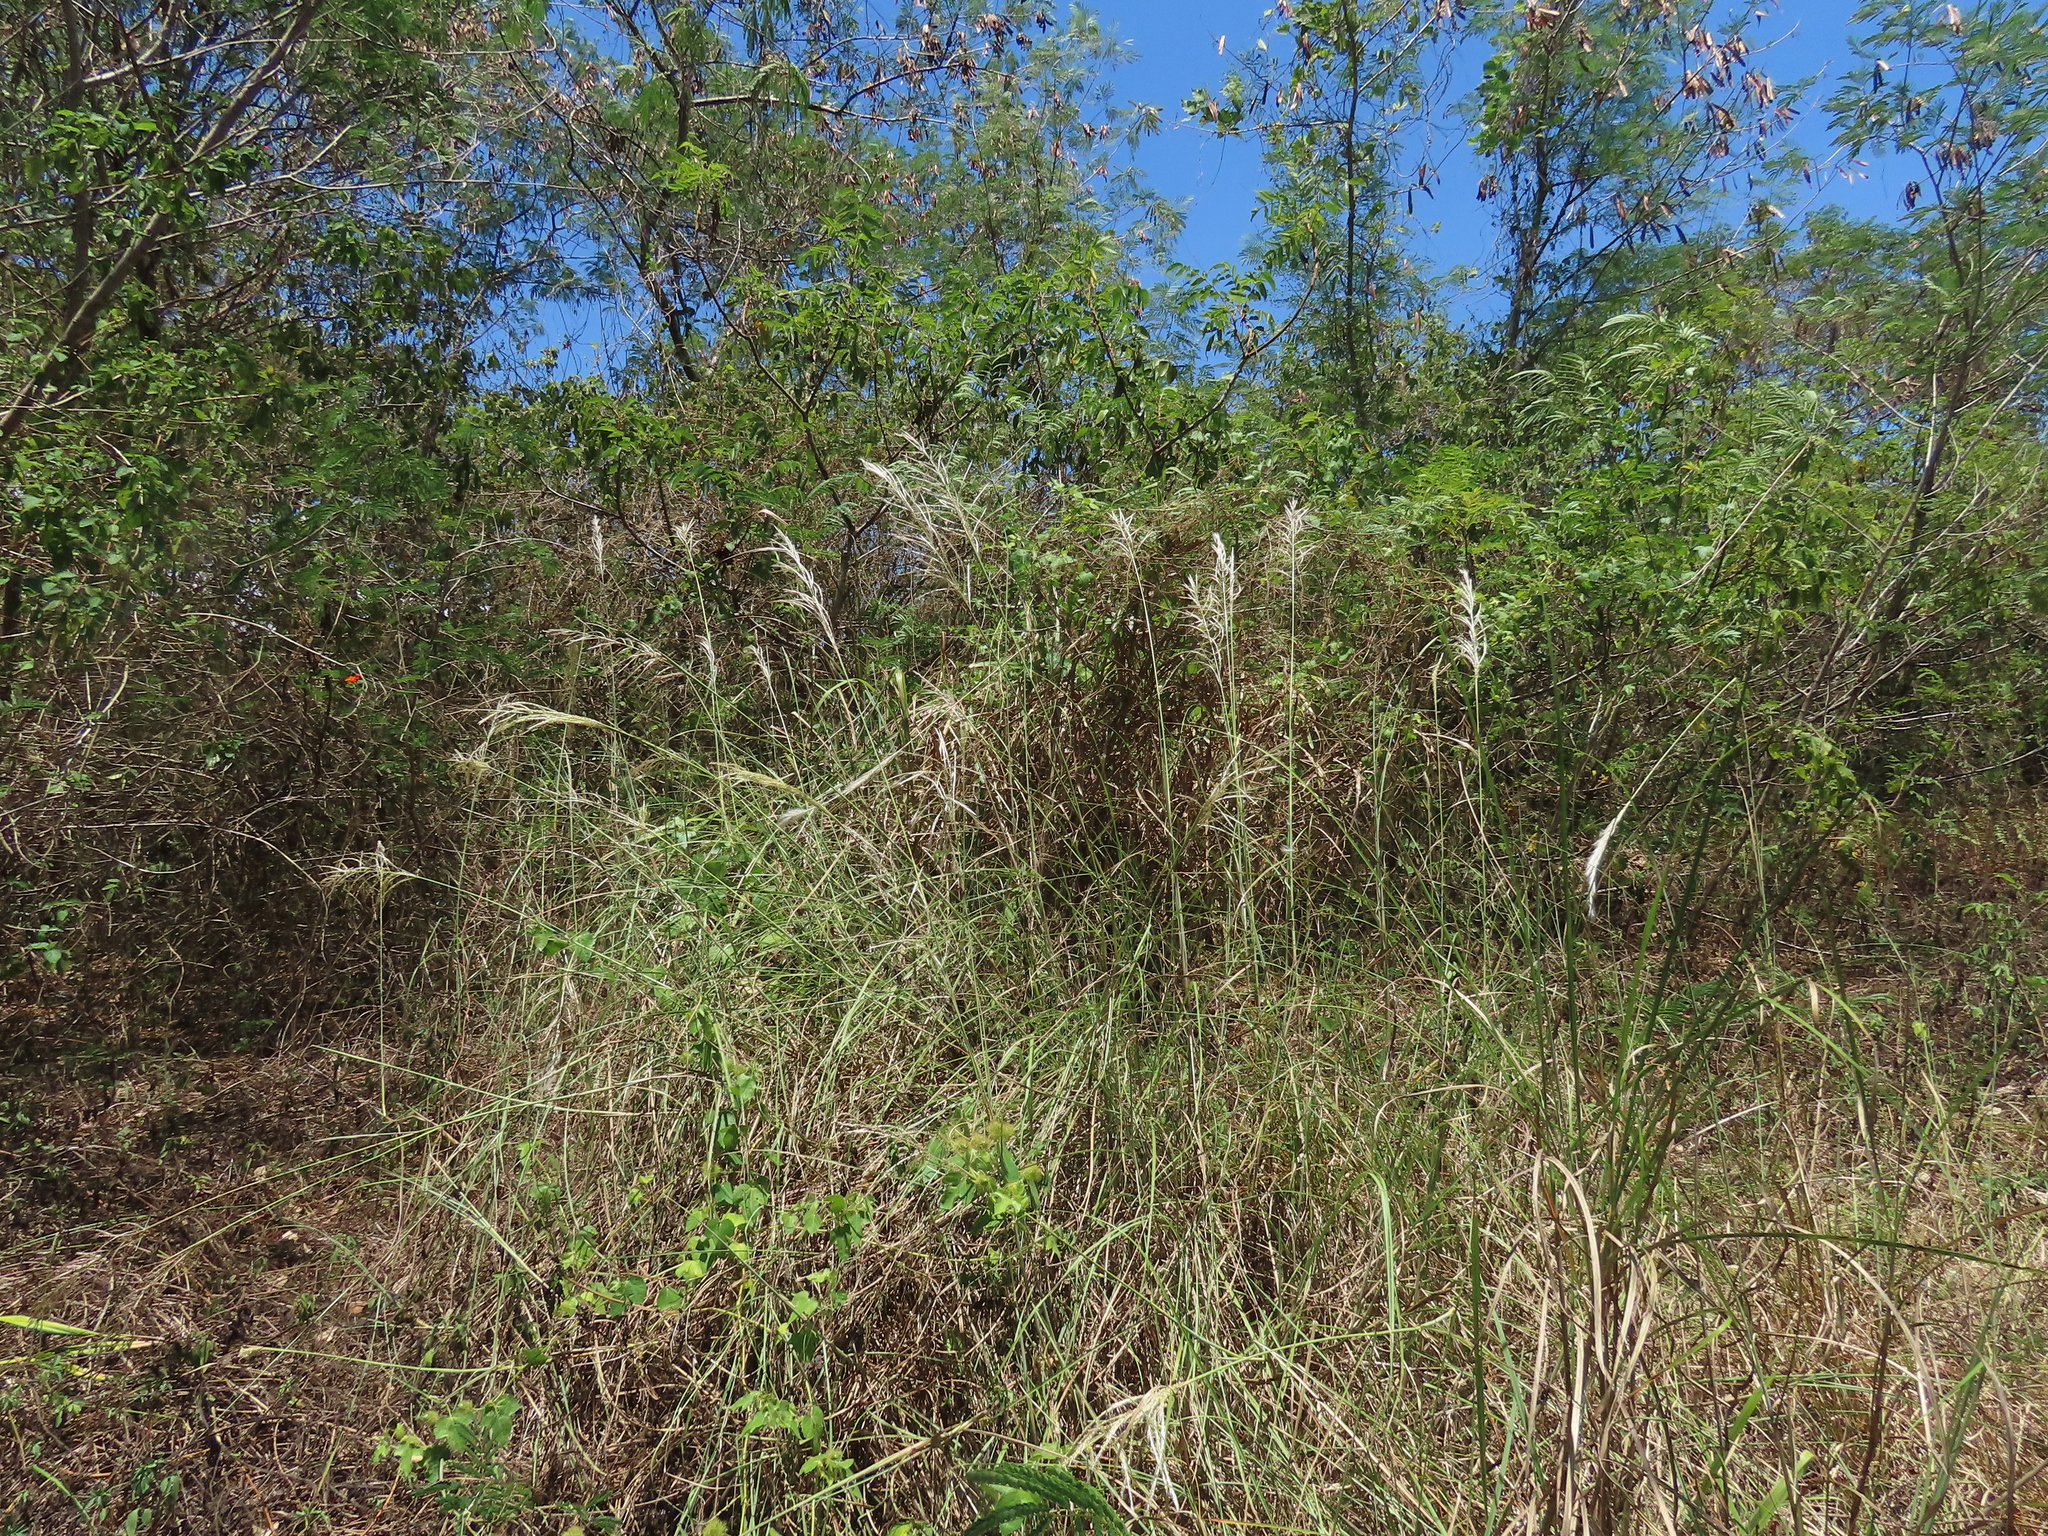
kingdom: Plantae
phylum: Tracheophyta
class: Liliopsida
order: Poales
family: Poaceae
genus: Saccharum
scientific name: Saccharum spontaneum
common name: Wild sugarcane
